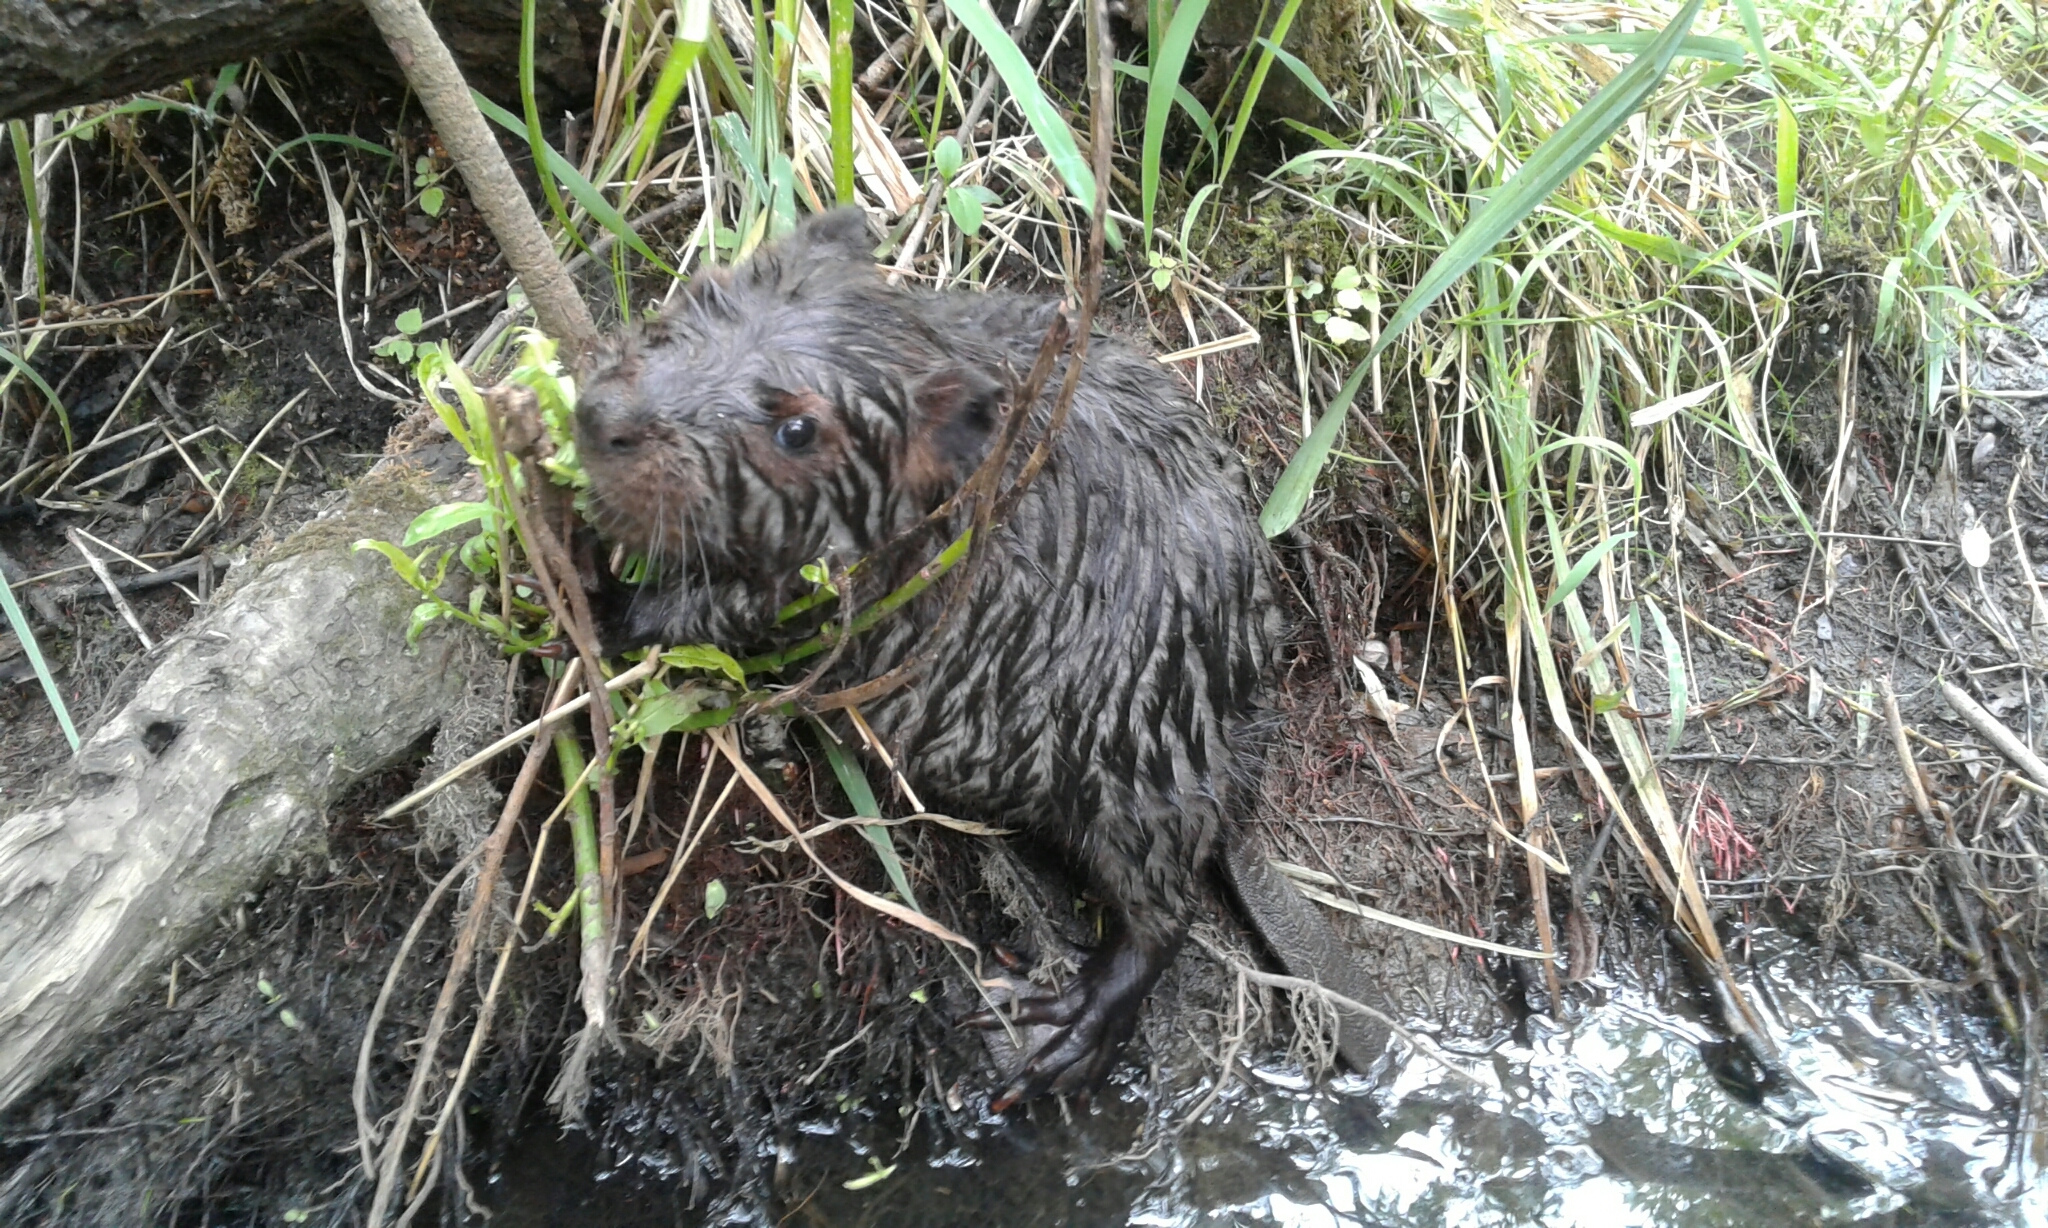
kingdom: Animalia
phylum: Chordata
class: Mammalia
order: Rodentia
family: Castoridae
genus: Castor
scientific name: Castor canadensis
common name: American beaver
